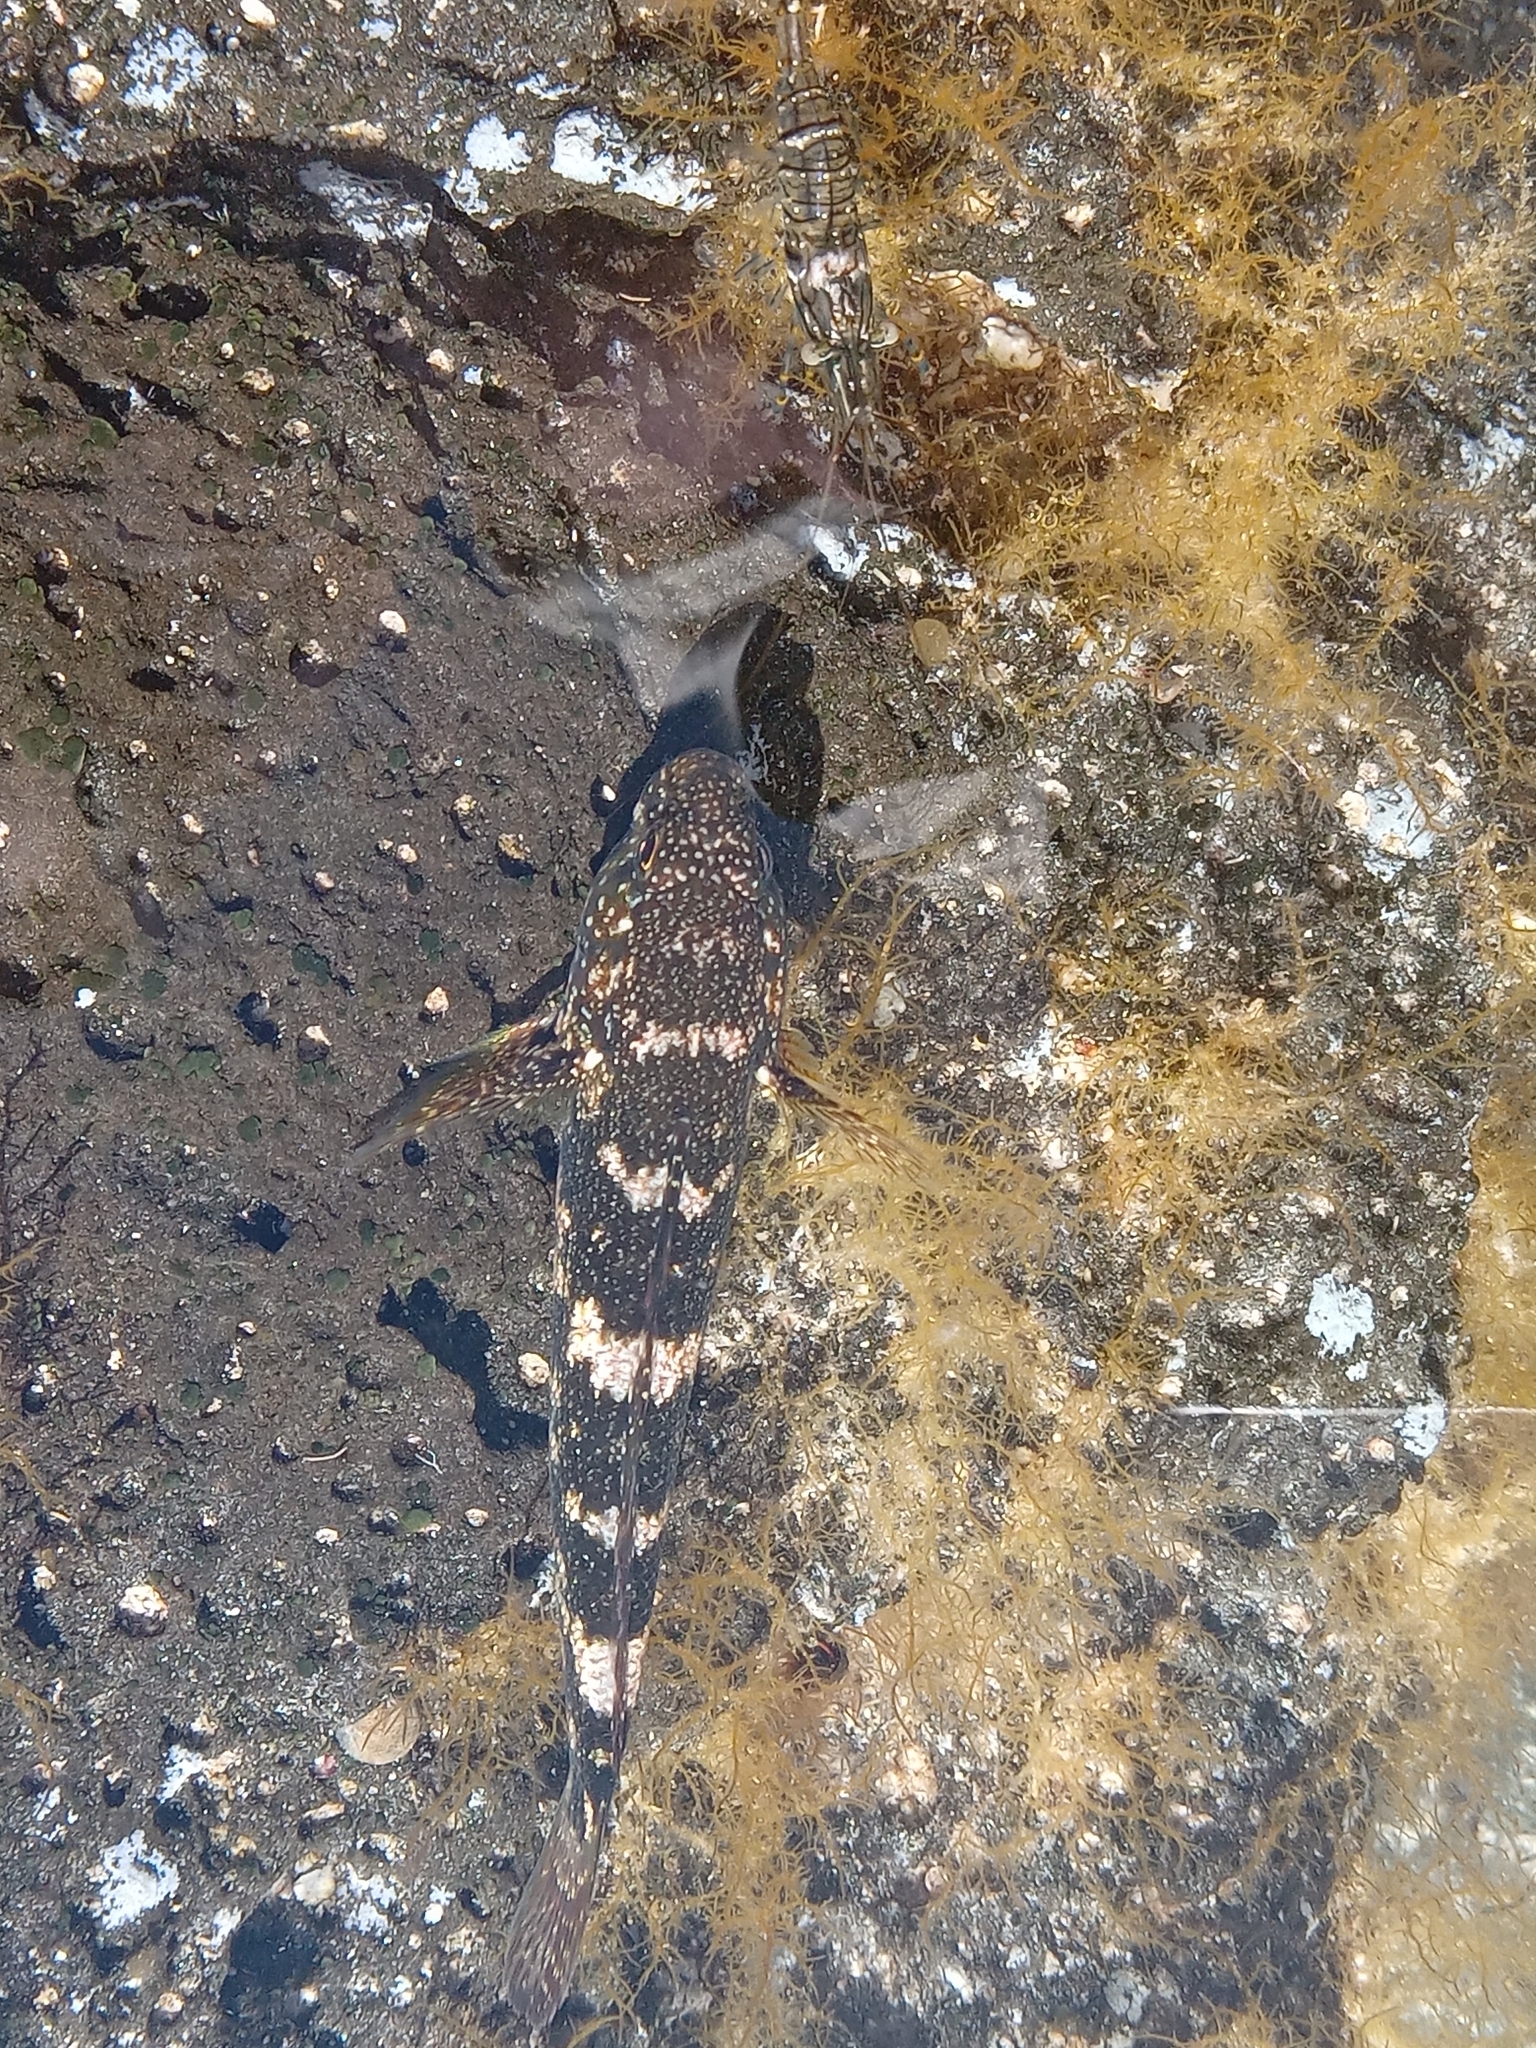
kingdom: Animalia
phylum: Chordata
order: Perciformes
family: Gobiidae
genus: Mauligobius
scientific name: Mauligobius maderensis
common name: Rock goby
